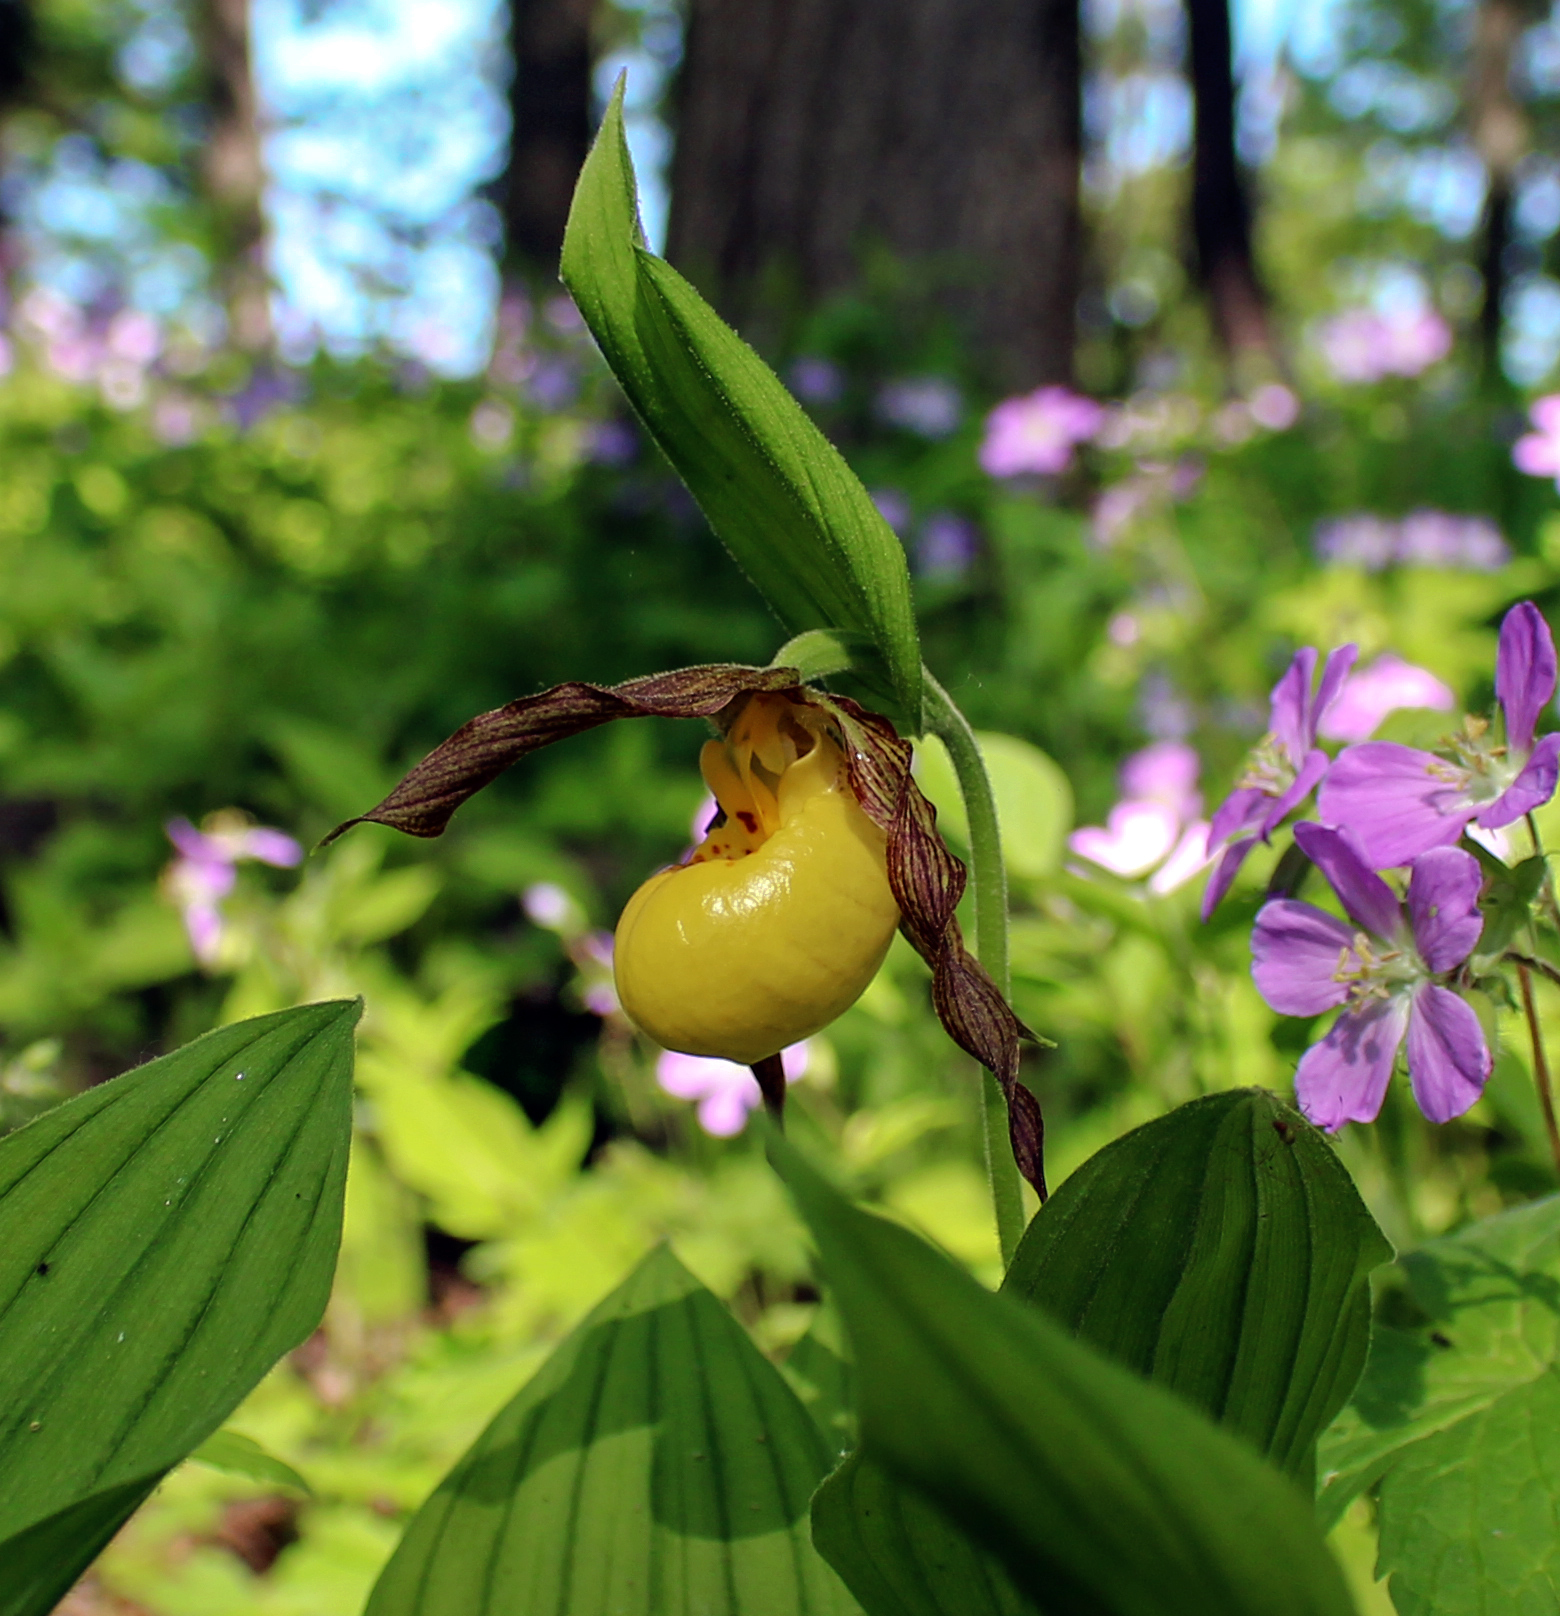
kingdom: Plantae
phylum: Tracheophyta
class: Liliopsida
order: Asparagales
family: Orchidaceae
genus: Cypripedium
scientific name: Cypripedium parviflorum
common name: American yellow lady's-slipper
